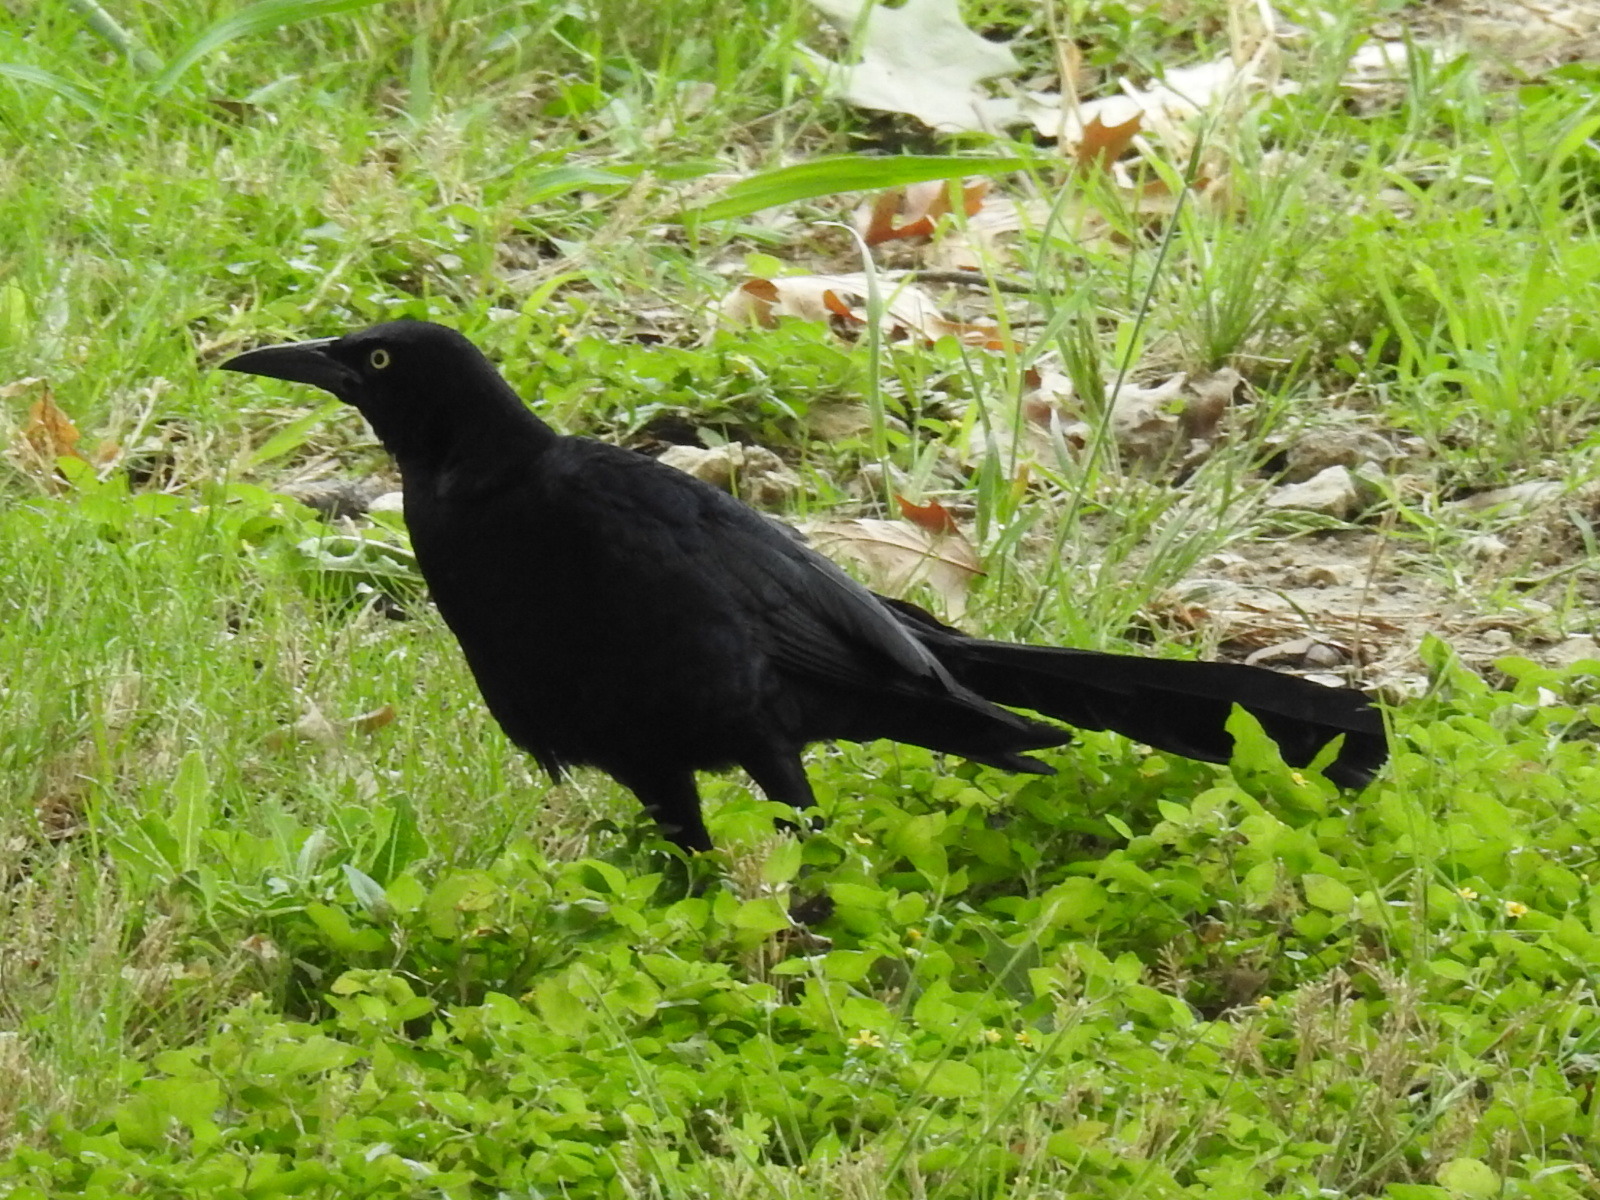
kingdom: Animalia
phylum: Chordata
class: Aves
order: Passeriformes
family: Icteridae
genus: Quiscalus
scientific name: Quiscalus mexicanus
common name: Great-tailed grackle
